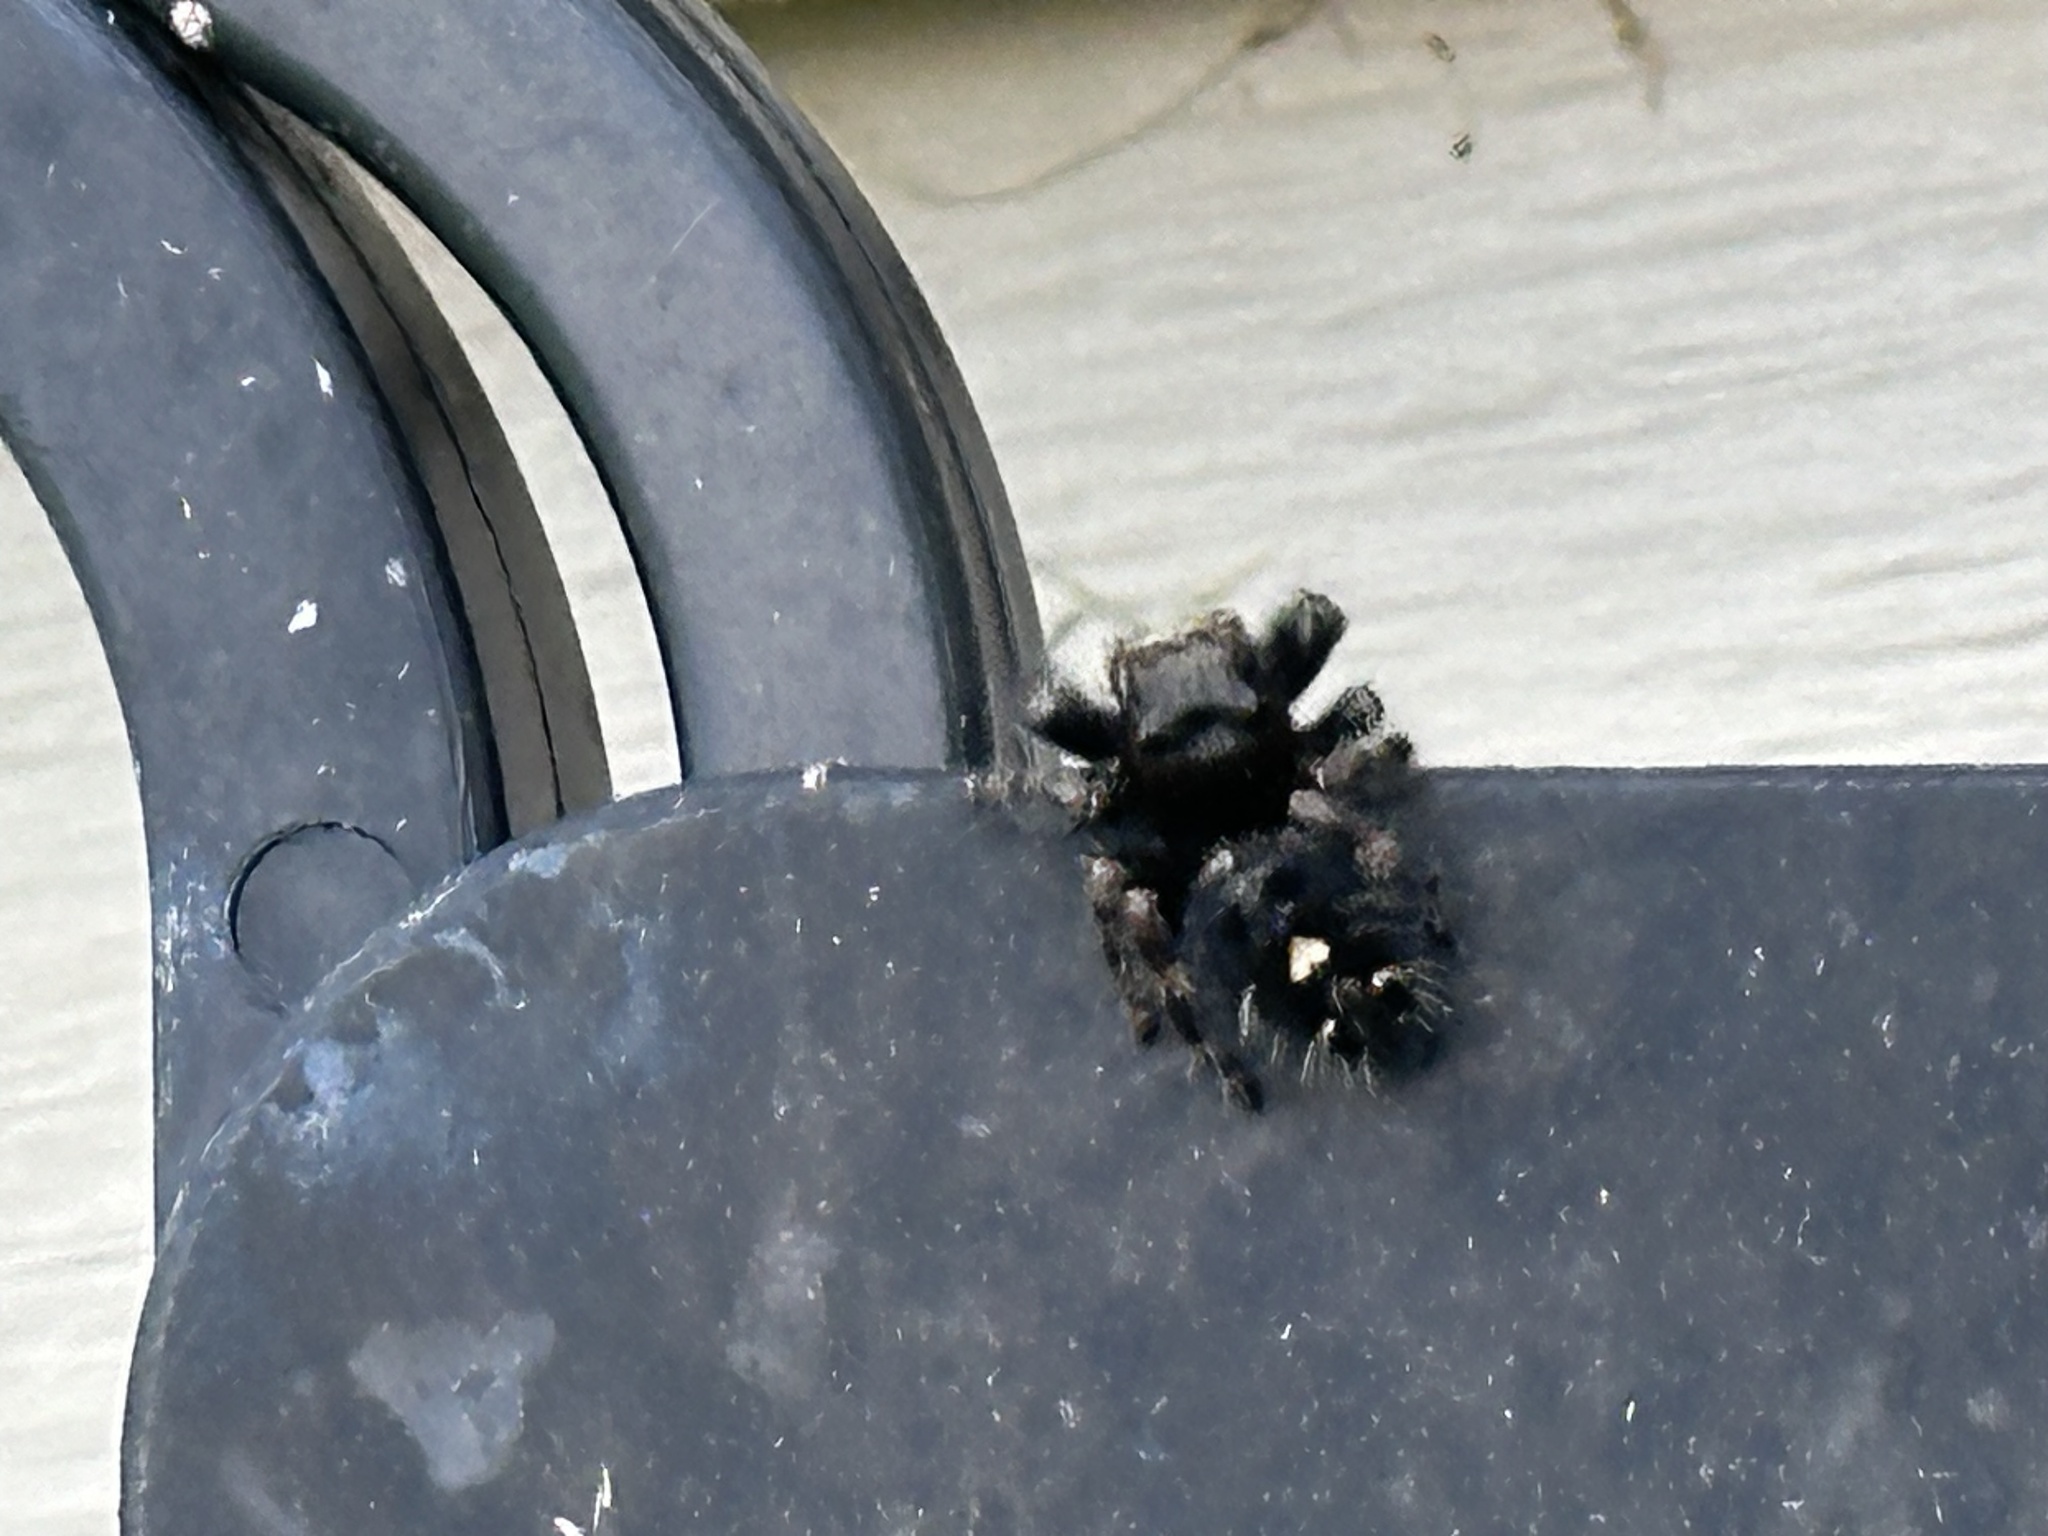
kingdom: Animalia
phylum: Arthropoda
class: Arachnida
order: Araneae
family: Salticidae
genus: Phidippus
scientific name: Phidippus audax
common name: Bold jumper
